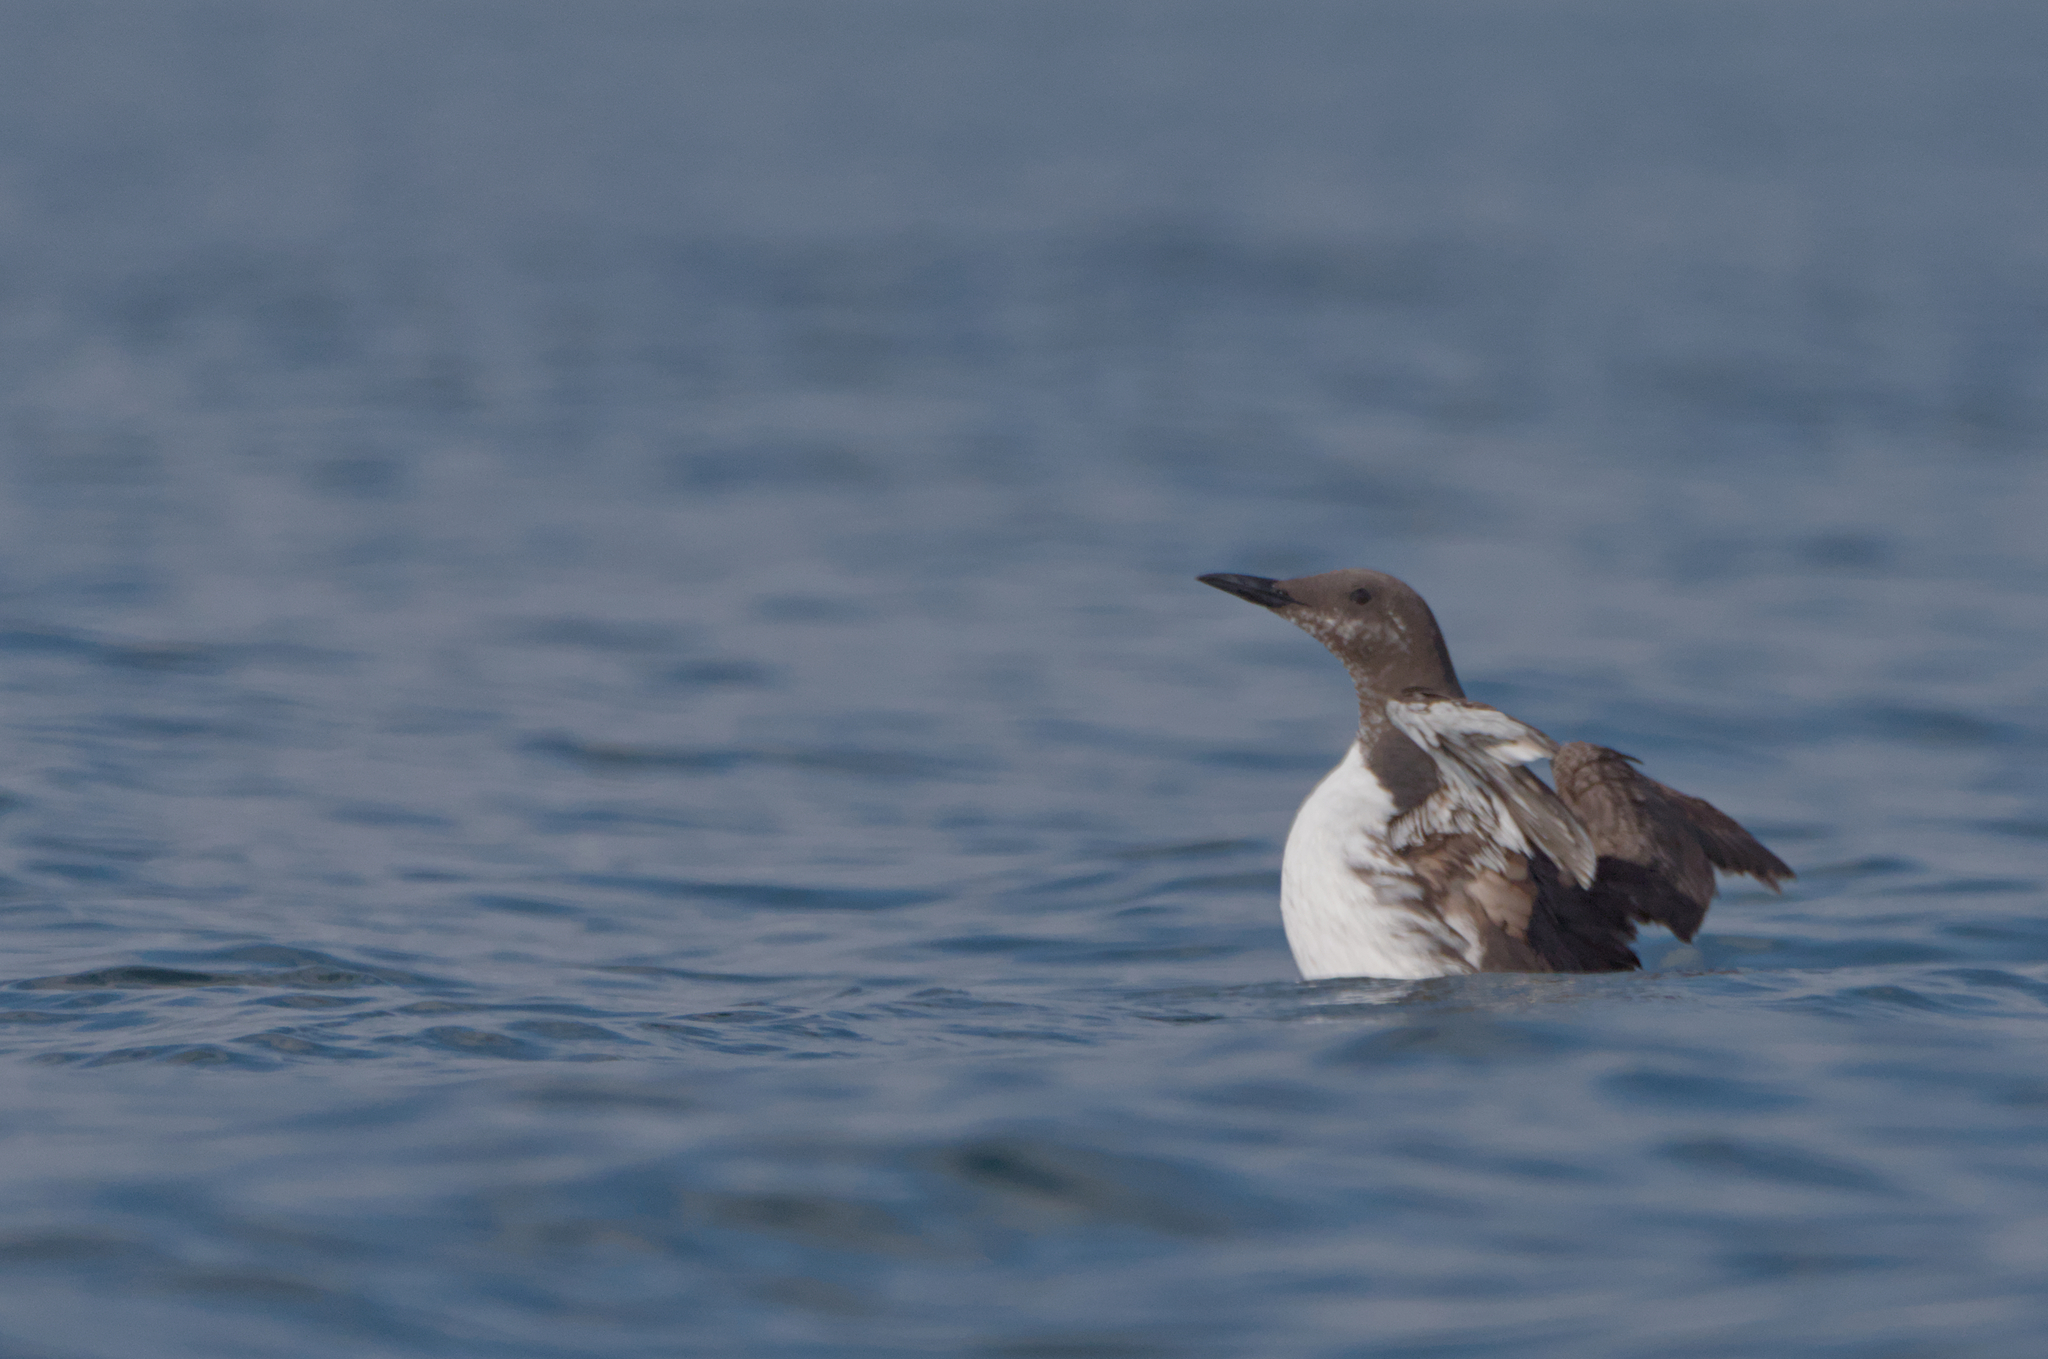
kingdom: Animalia
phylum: Chordata
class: Aves
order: Charadriiformes
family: Alcidae
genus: Uria
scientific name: Uria aalge
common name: Common murre
